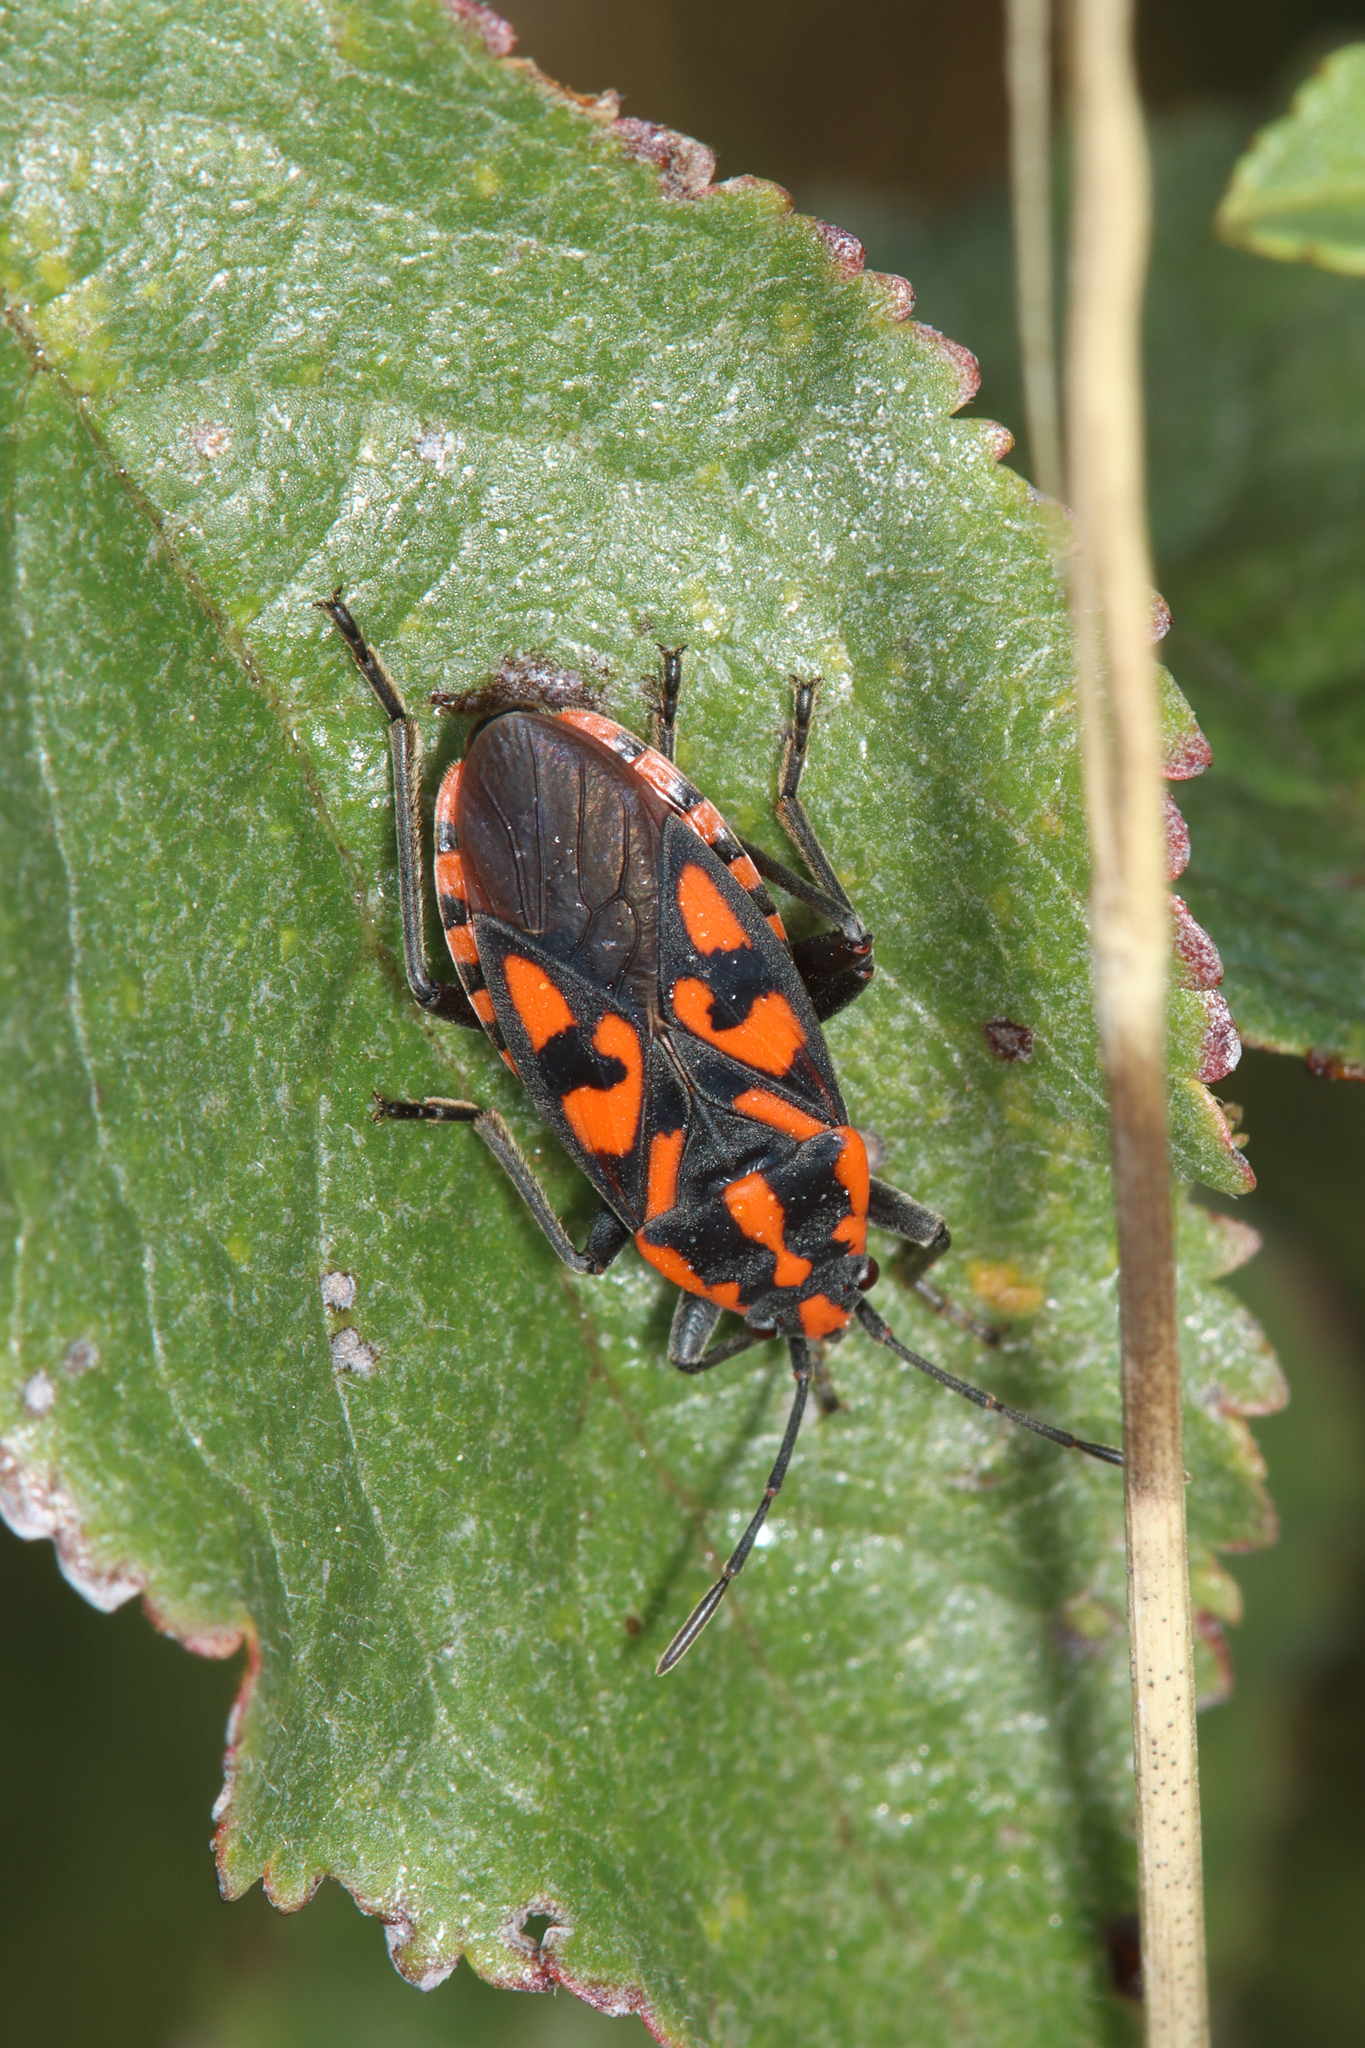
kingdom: Animalia
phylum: Arthropoda
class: Insecta
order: Hemiptera
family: Lygaeidae
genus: Spilostethus
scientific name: Spilostethus saxatilis
